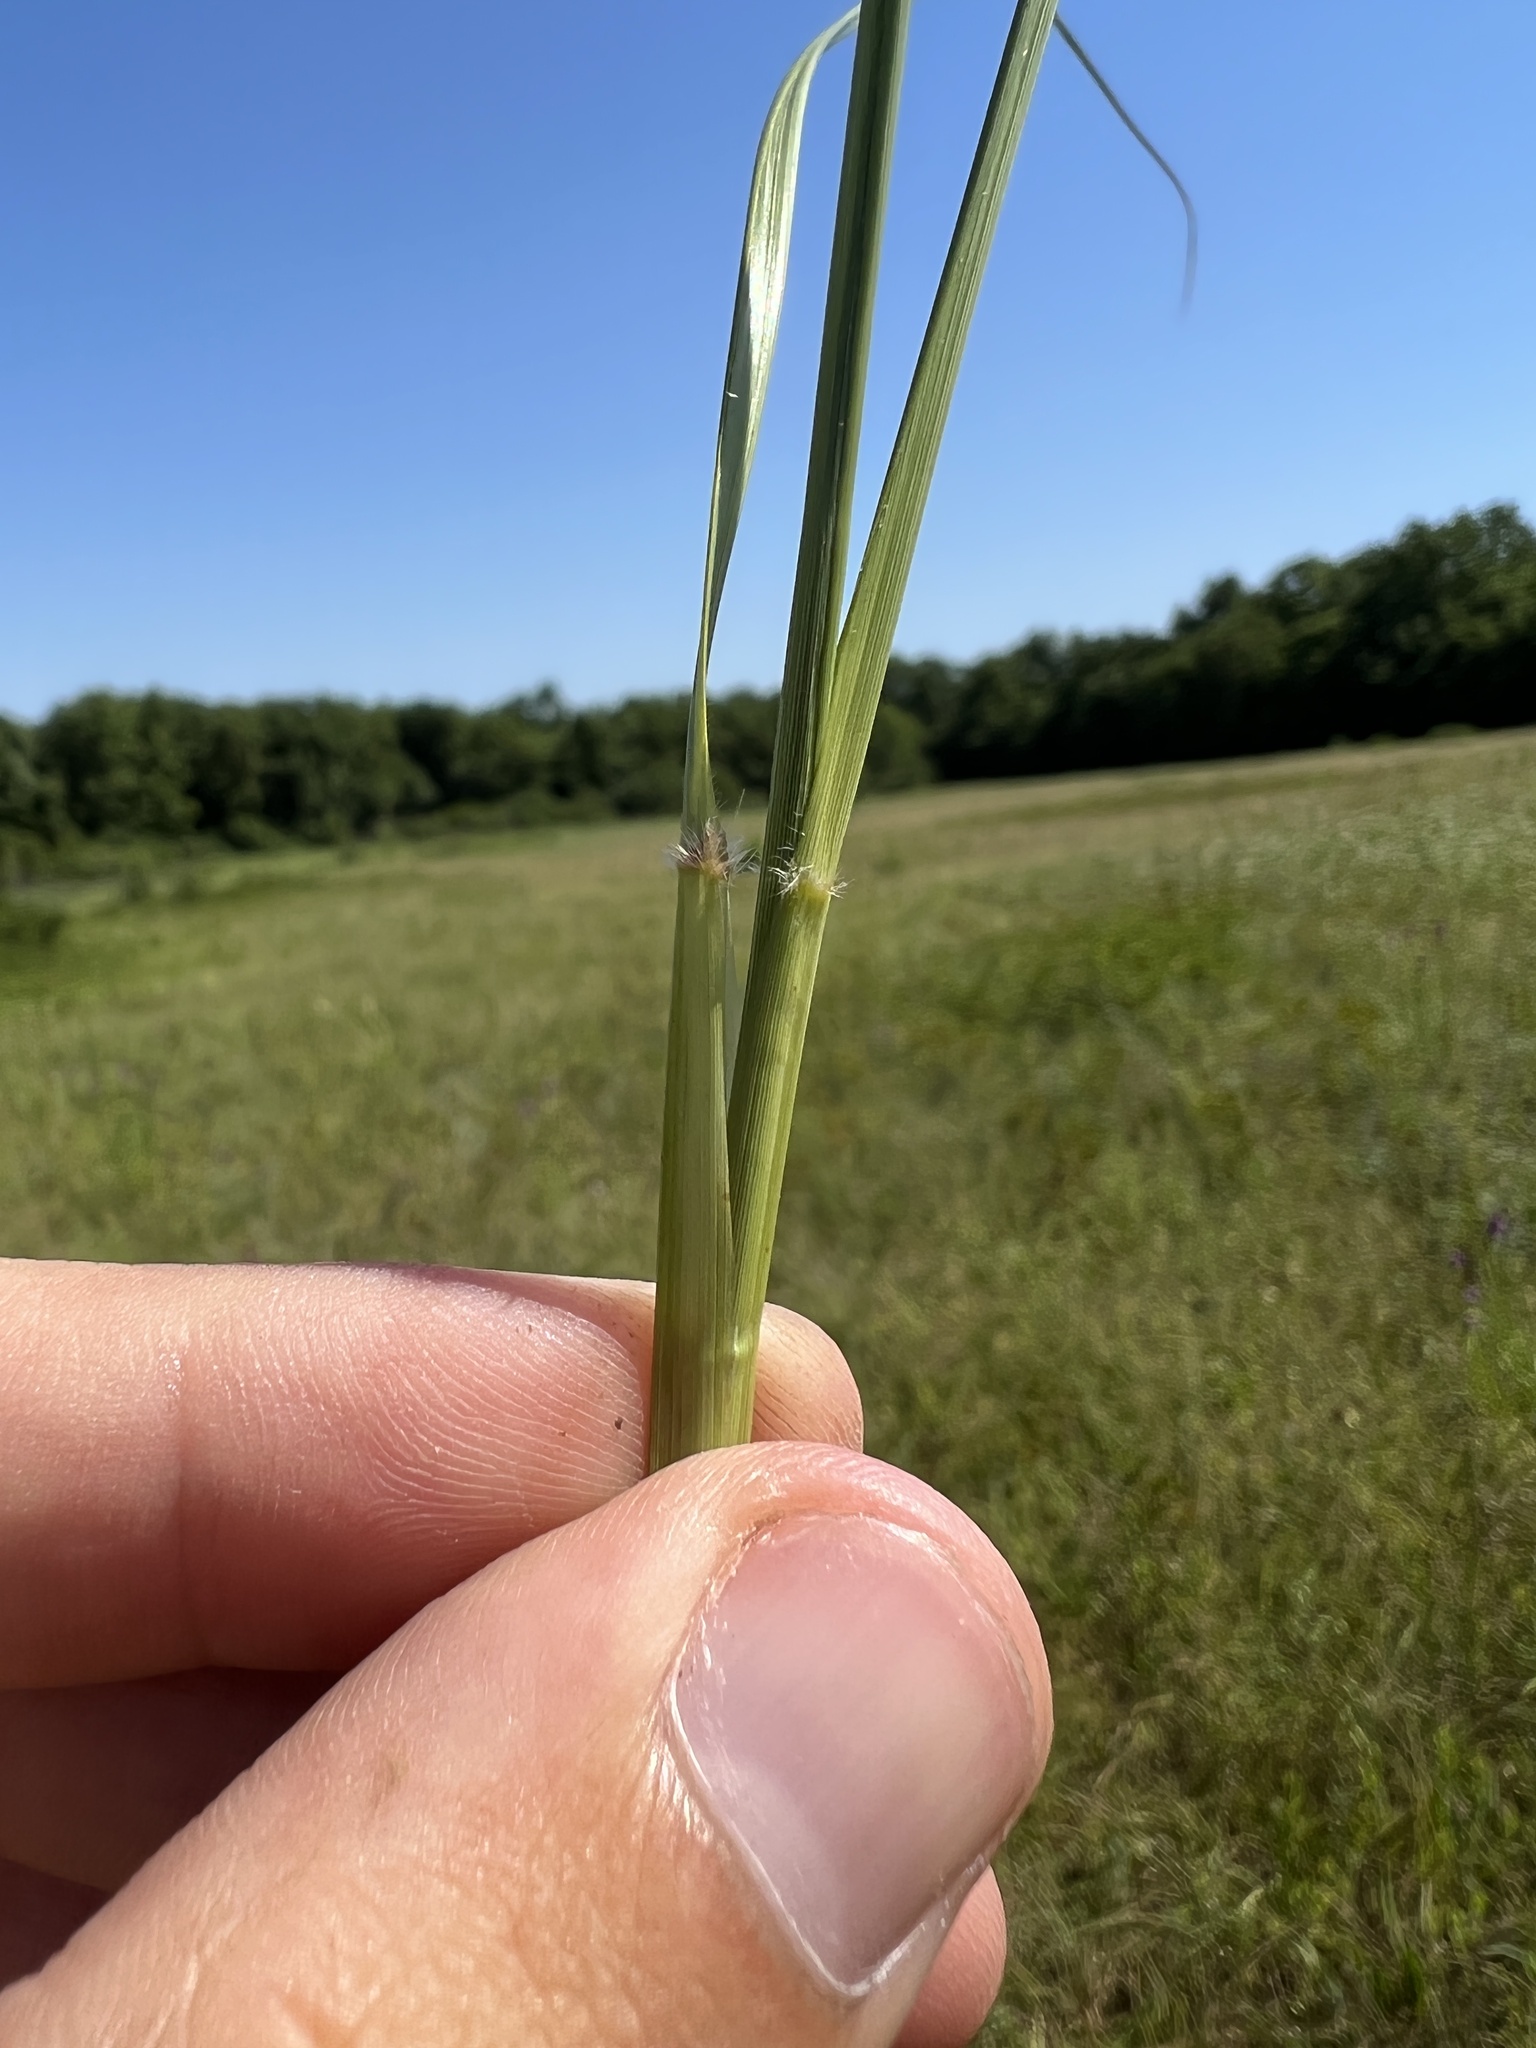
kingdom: Plantae
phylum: Tracheophyta
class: Liliopsida
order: Poales
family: Poaceae
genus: Tridens
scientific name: Tridens flavus
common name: Purpletop
